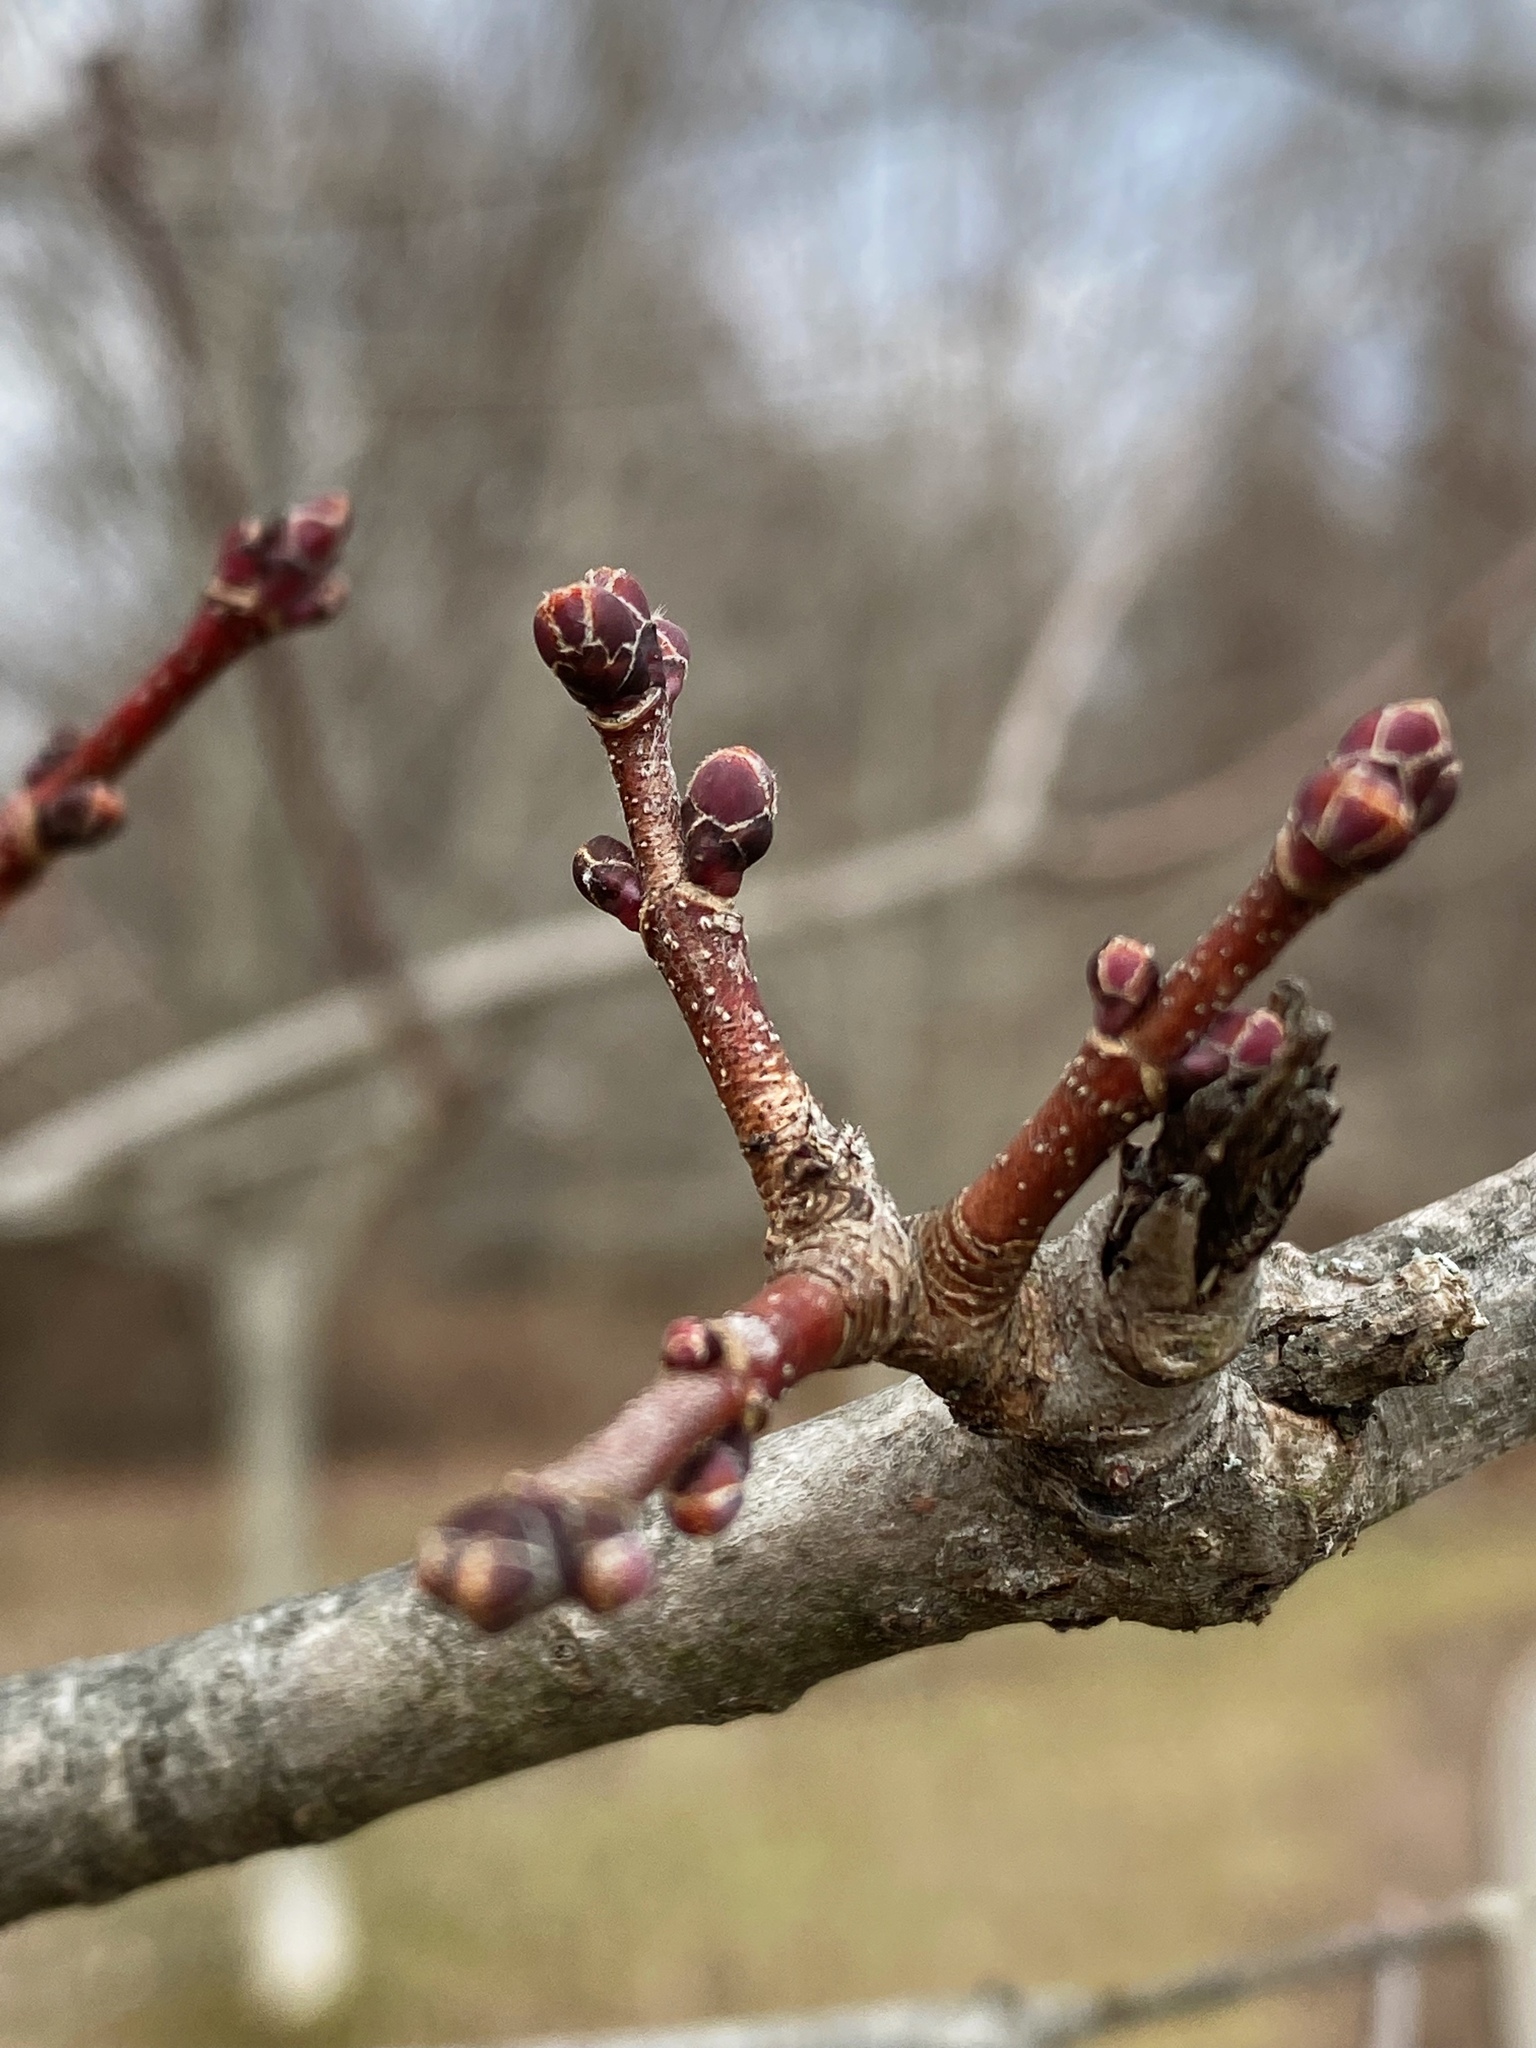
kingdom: Plantae
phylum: Tracheophyta
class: Magnoliopsida
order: Sapindales
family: Sapindaceae
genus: Acer
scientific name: Acer rubrum
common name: Red maple
